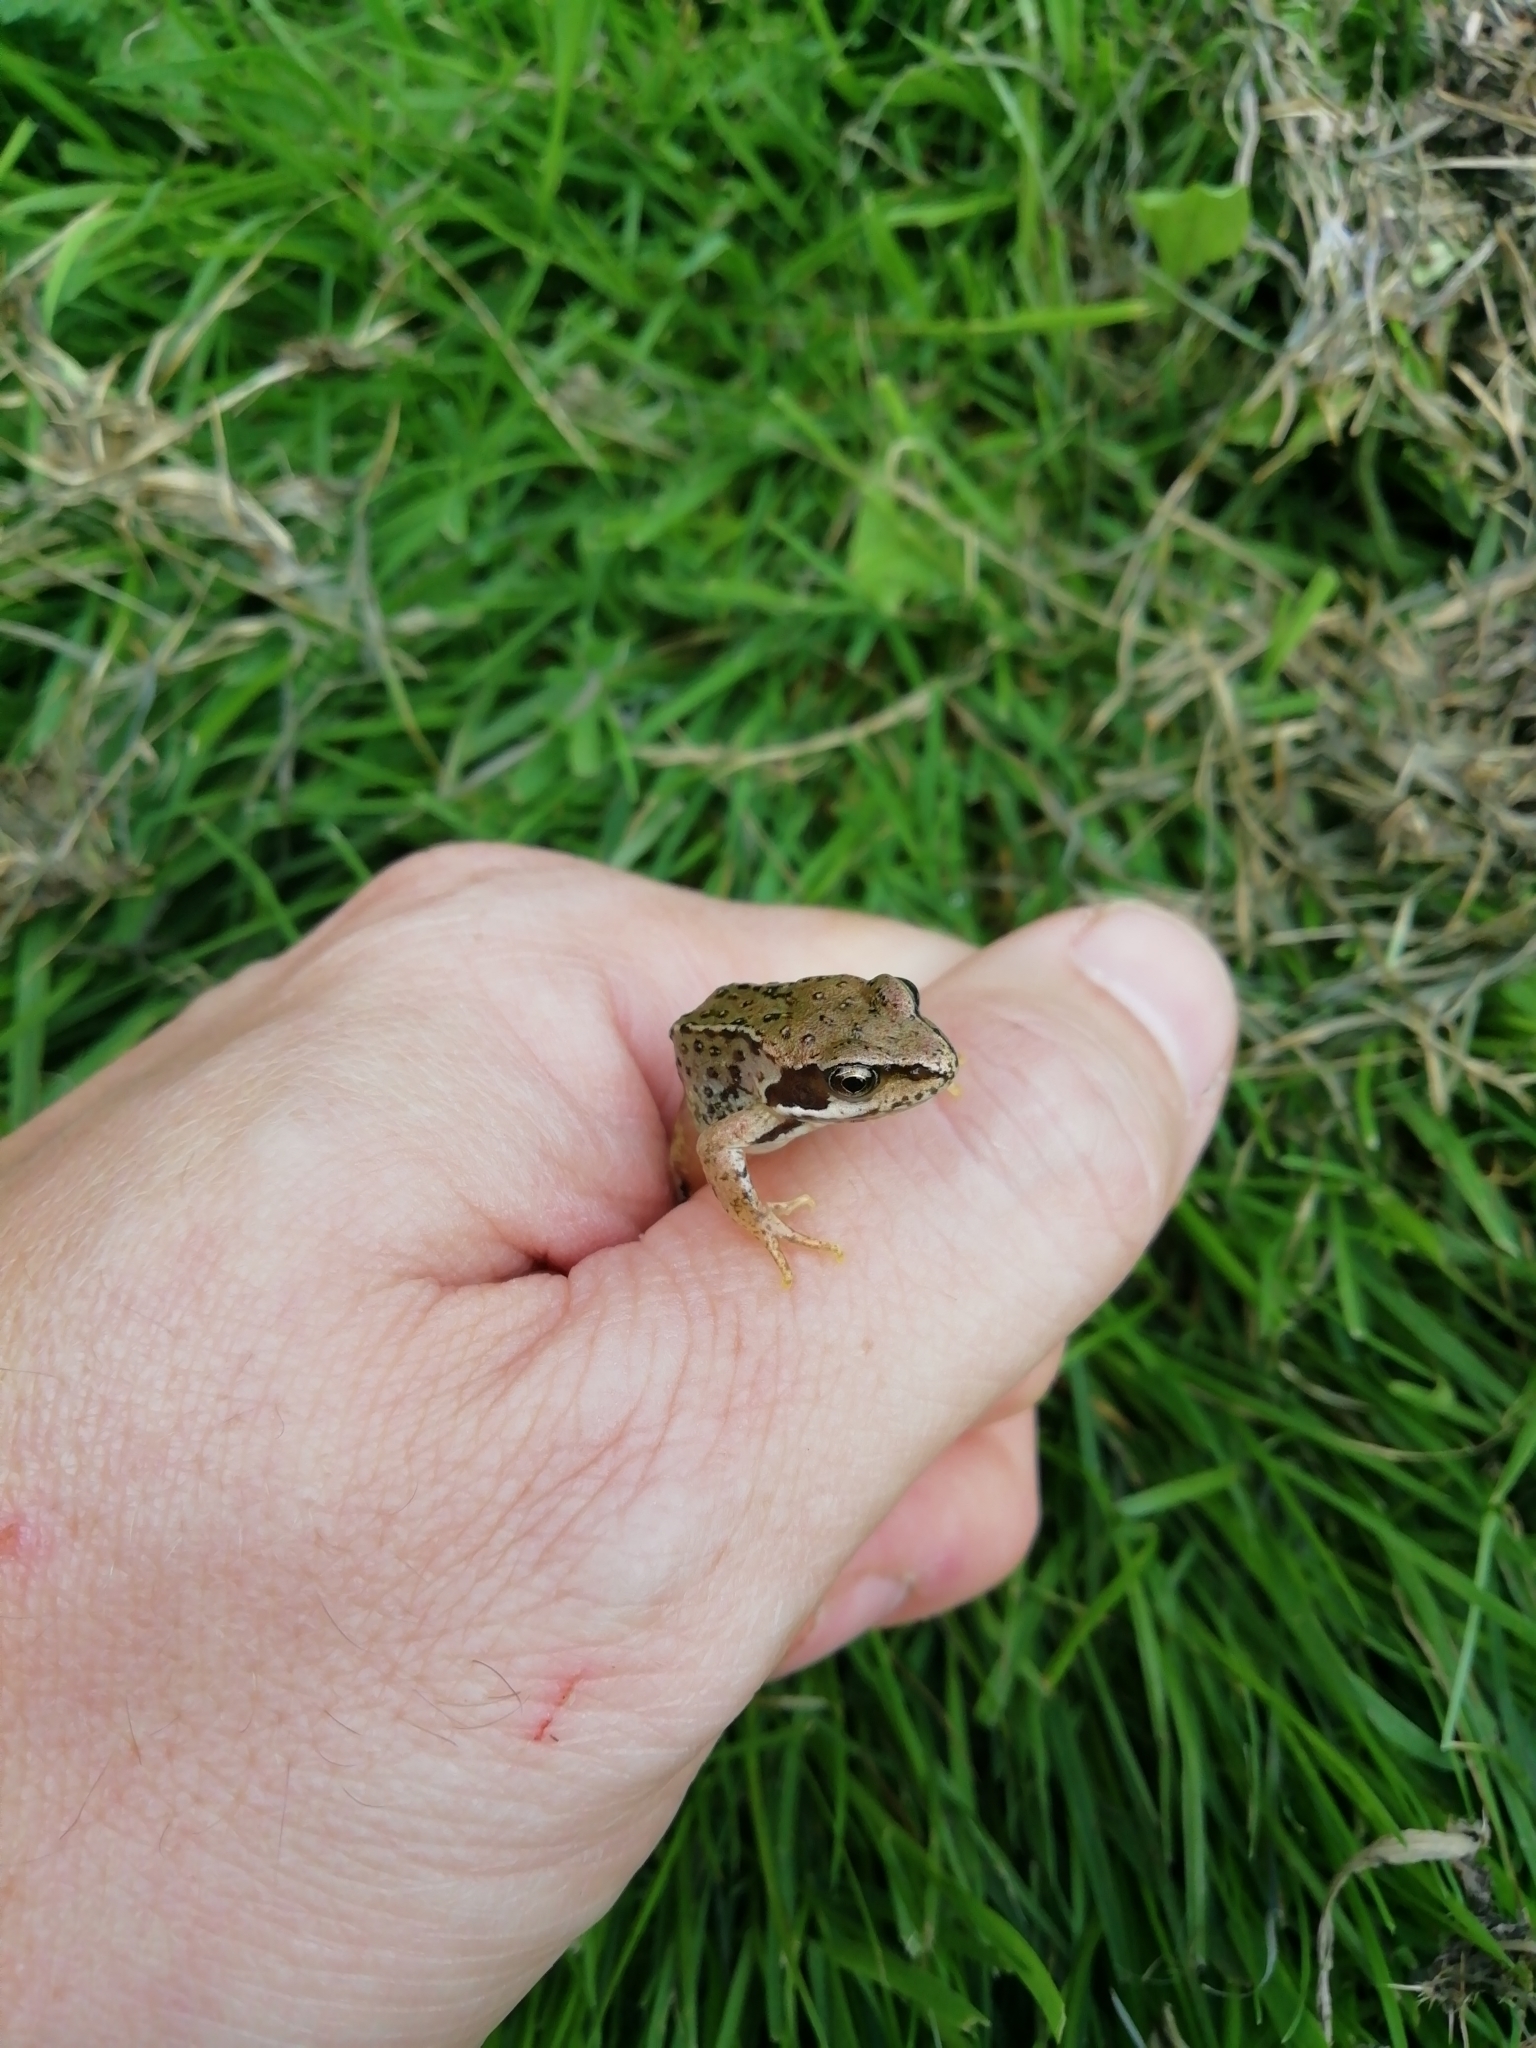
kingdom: Animalia
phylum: Chordata
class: Amphibia
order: Anura
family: Ranidae
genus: Rana
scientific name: Rana temporaria
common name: Common frog
